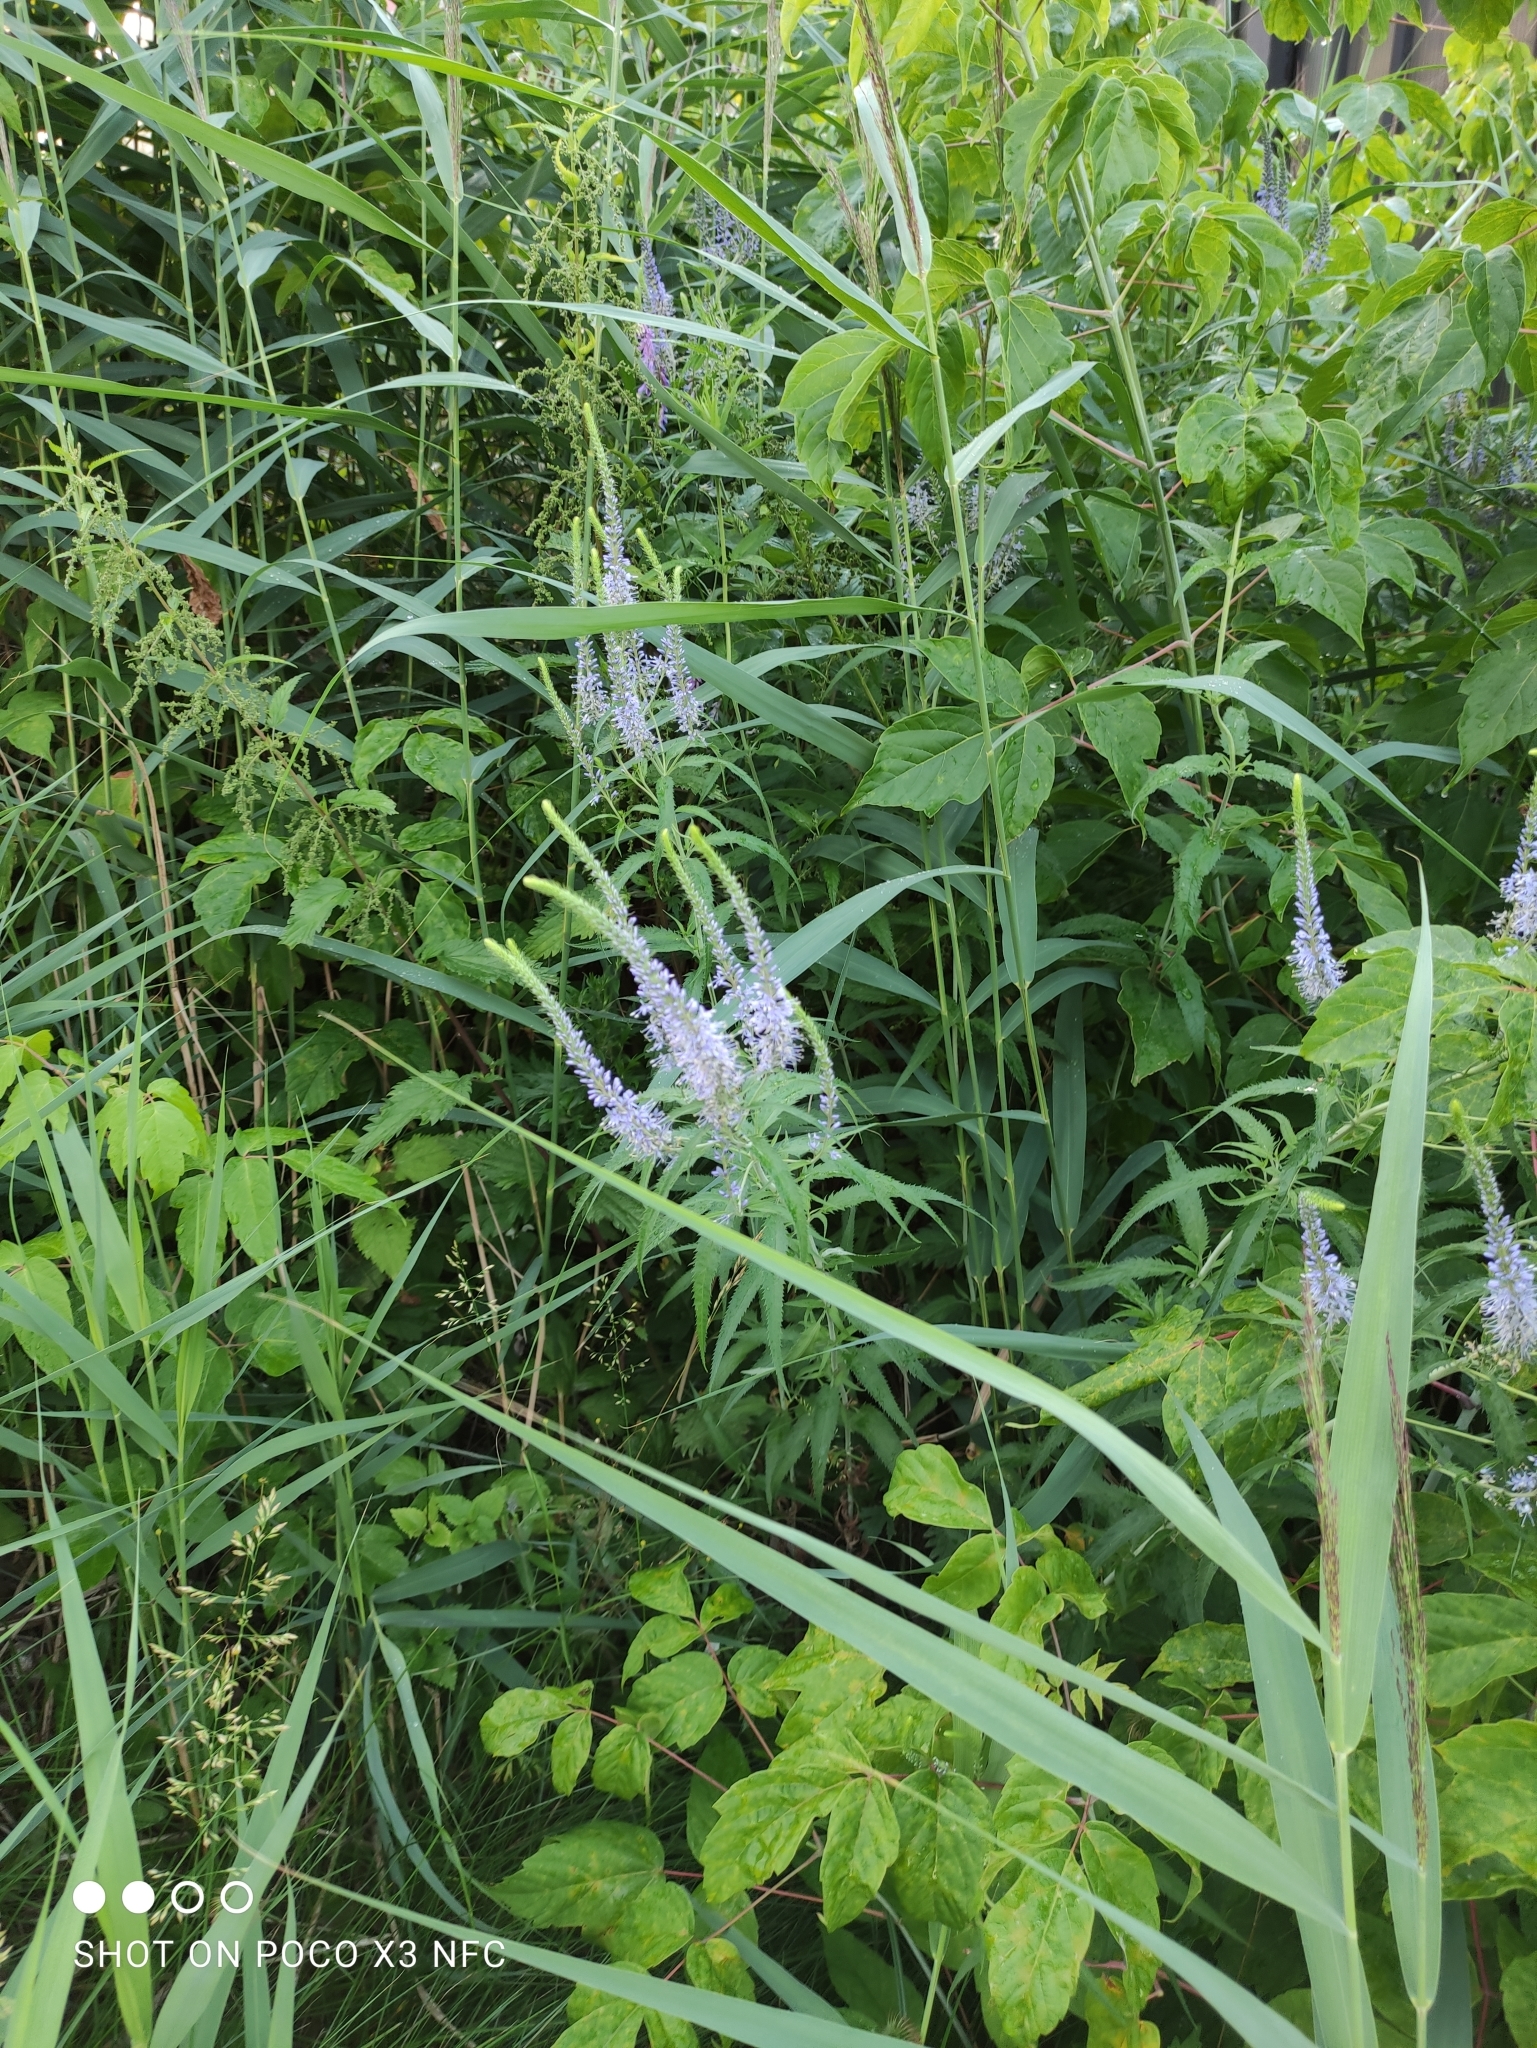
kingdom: Plantae
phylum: Tracheophyta
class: Magnoliopsida
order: Lamiales
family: Plantaginaceae
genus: Veronica
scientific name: Veronica longifolia
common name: Garden speedwell
